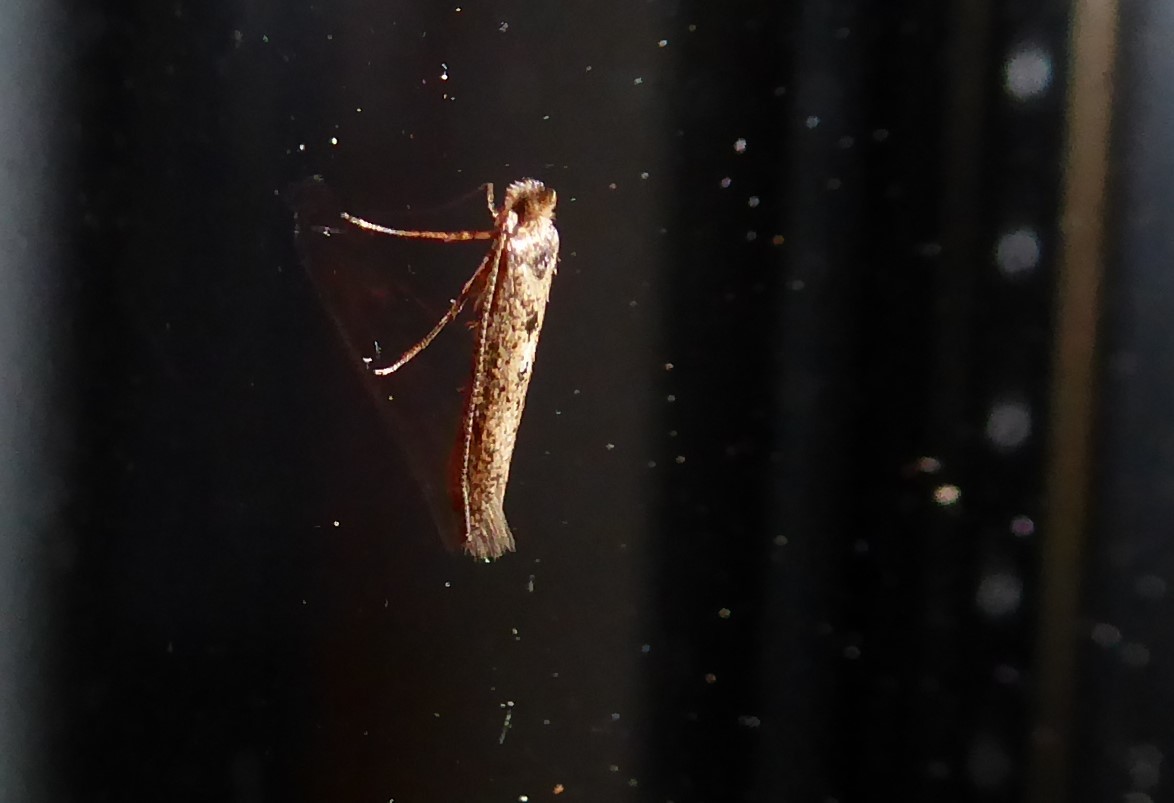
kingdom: Animalia
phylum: Arthropoda
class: Insecta
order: Lepidoptera
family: Bedelliidae
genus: Bedellia
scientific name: Bedellia somnulentella
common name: Morning-glory leafminer moth
